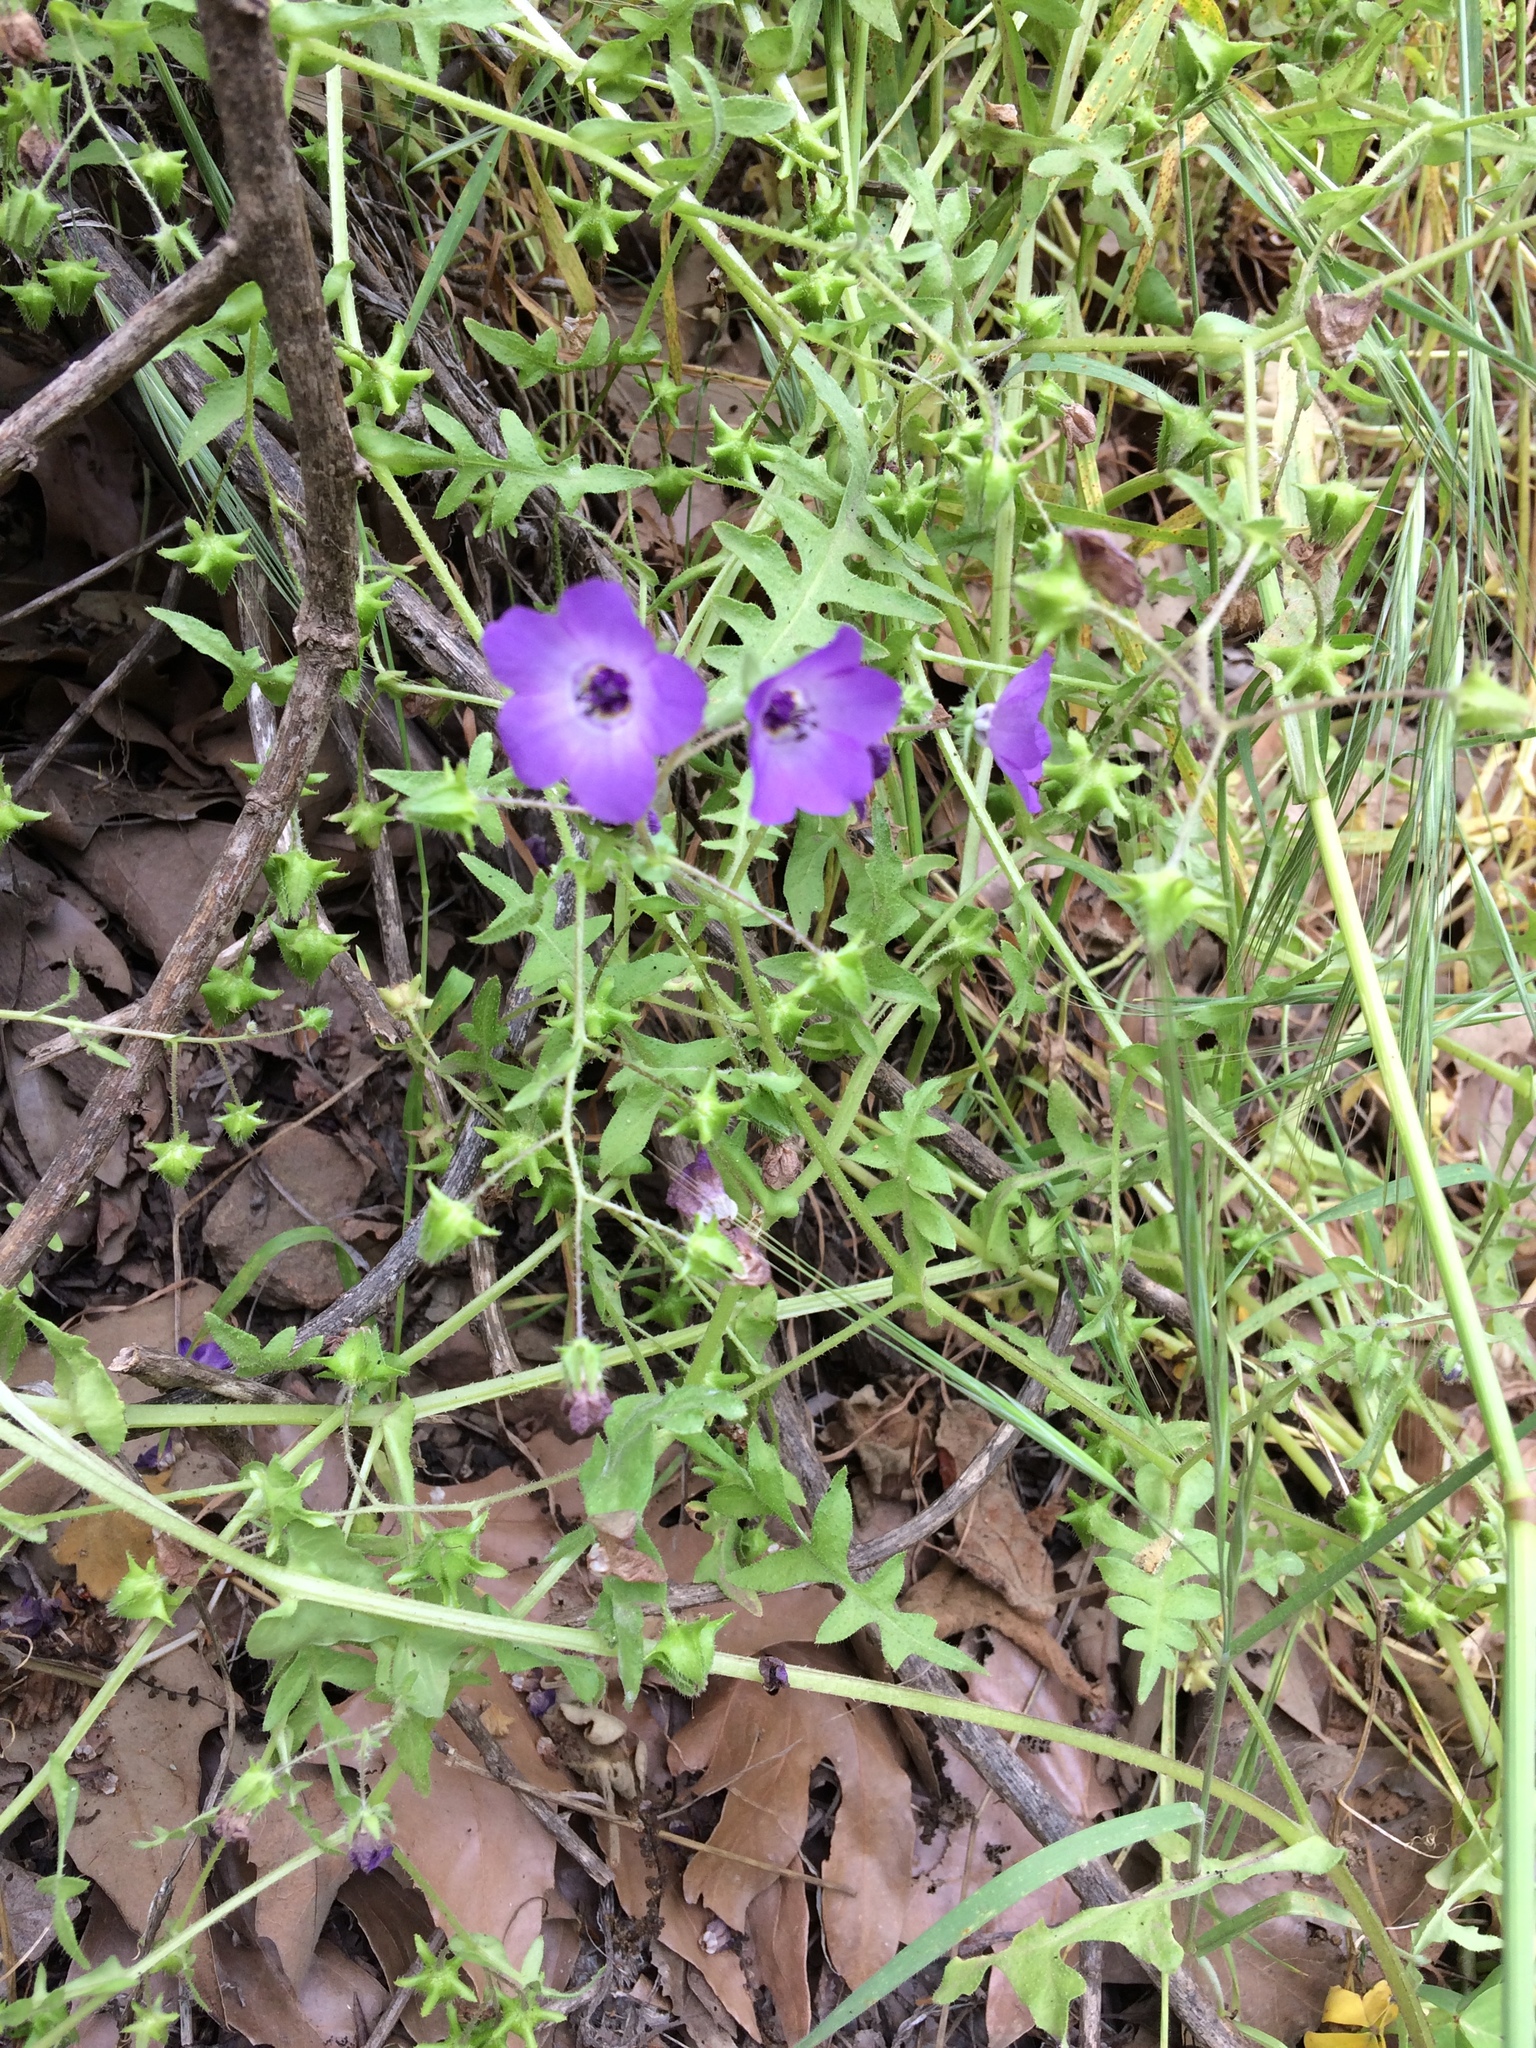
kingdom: Plantae
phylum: Tracheophyta
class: Magnoliopsida
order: Boraginales
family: Hydrophyllaceae
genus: Pholistoma
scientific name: Pholistoma auritum
